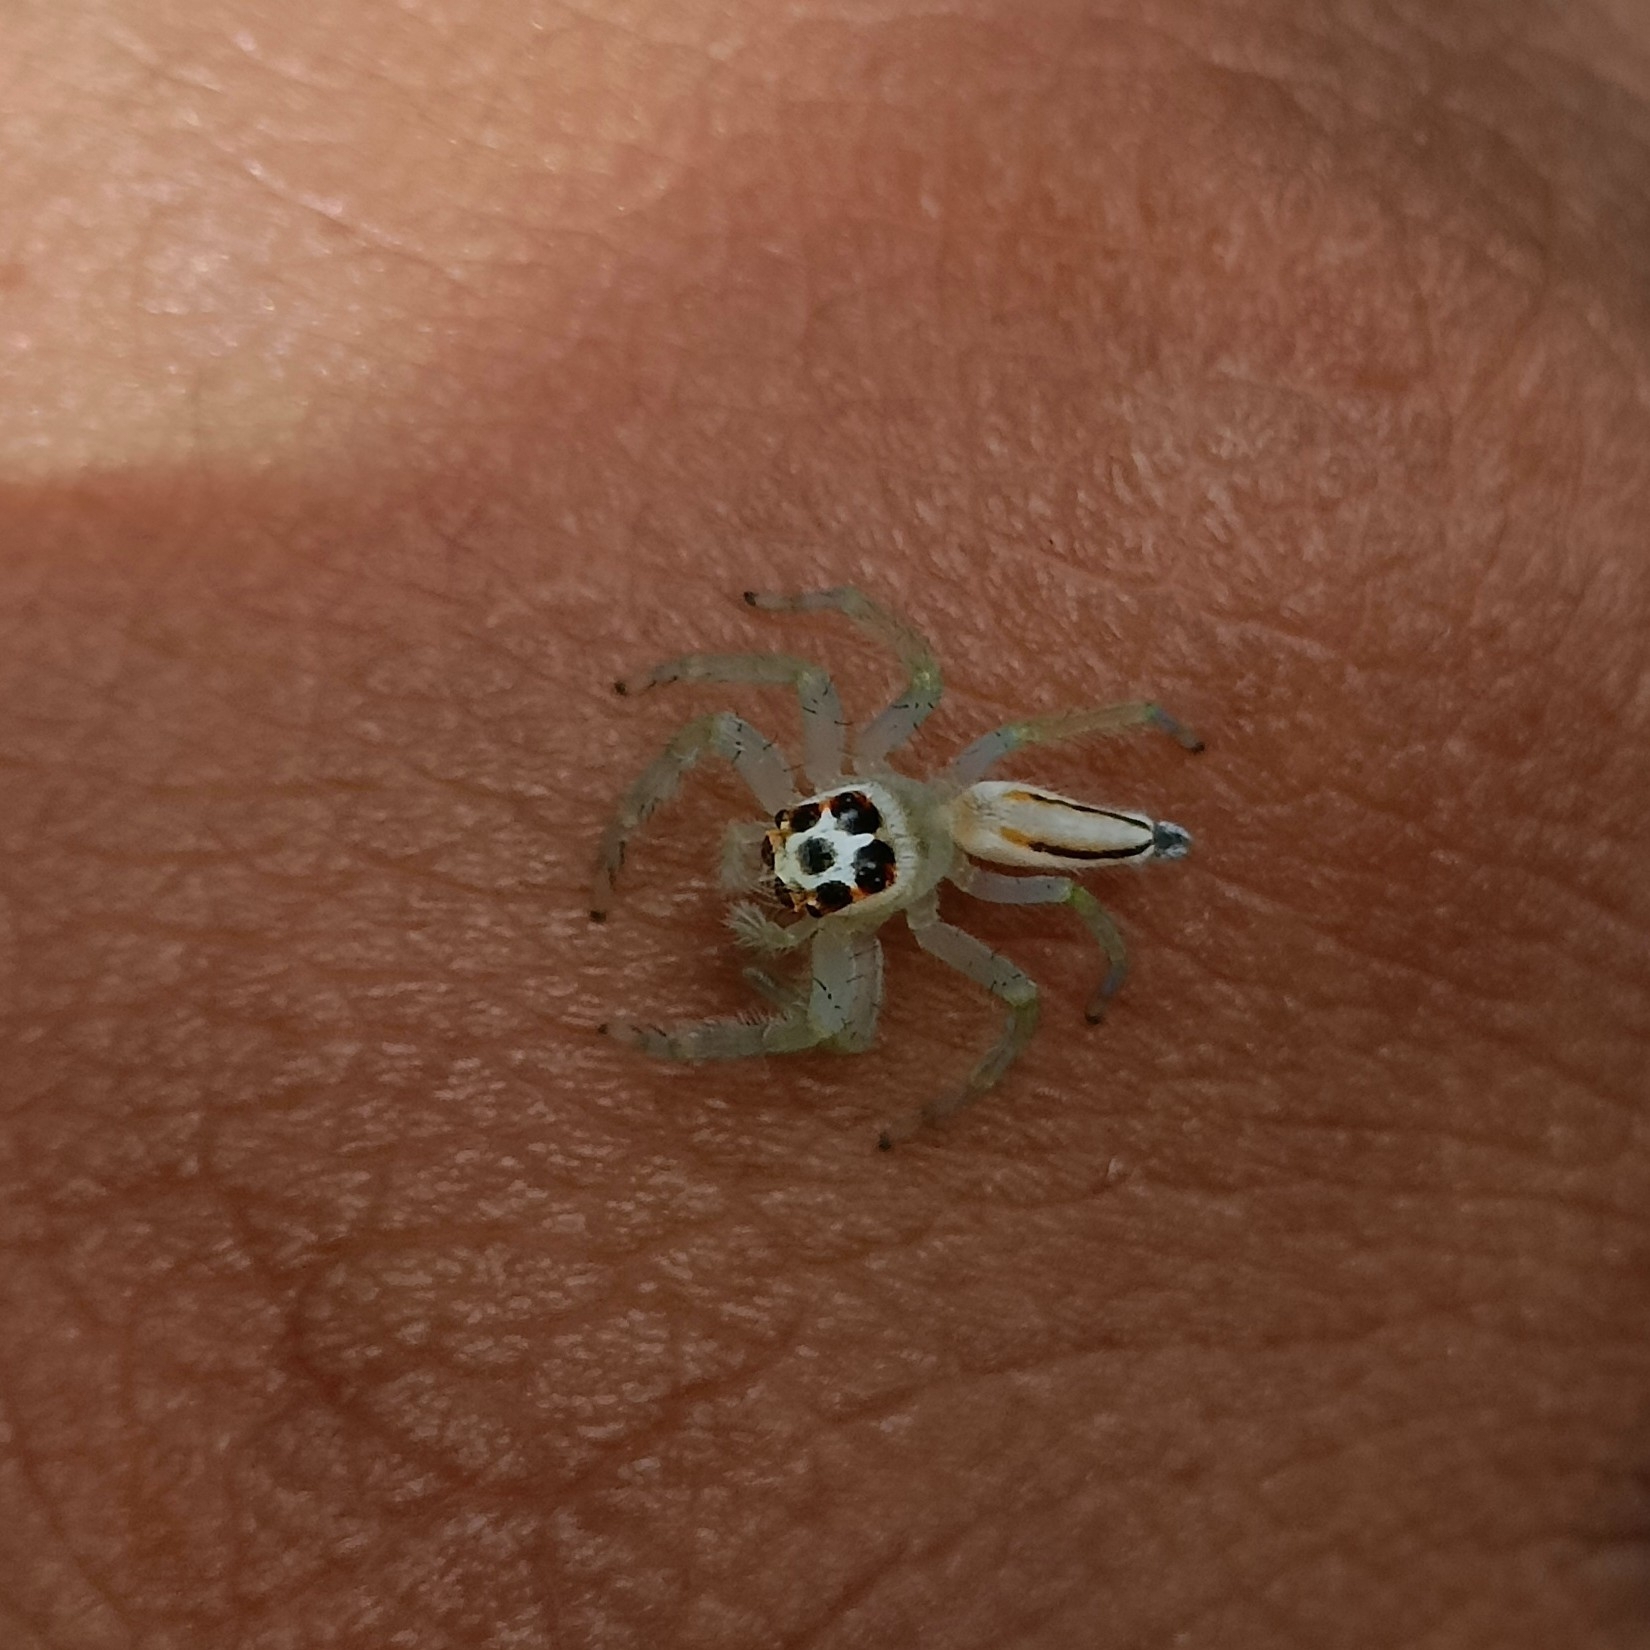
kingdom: Animalia
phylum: Arthropoda
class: Arachnida
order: Araneae
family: Salticidae
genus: Telamonia
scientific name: Telamonia dimidiata
